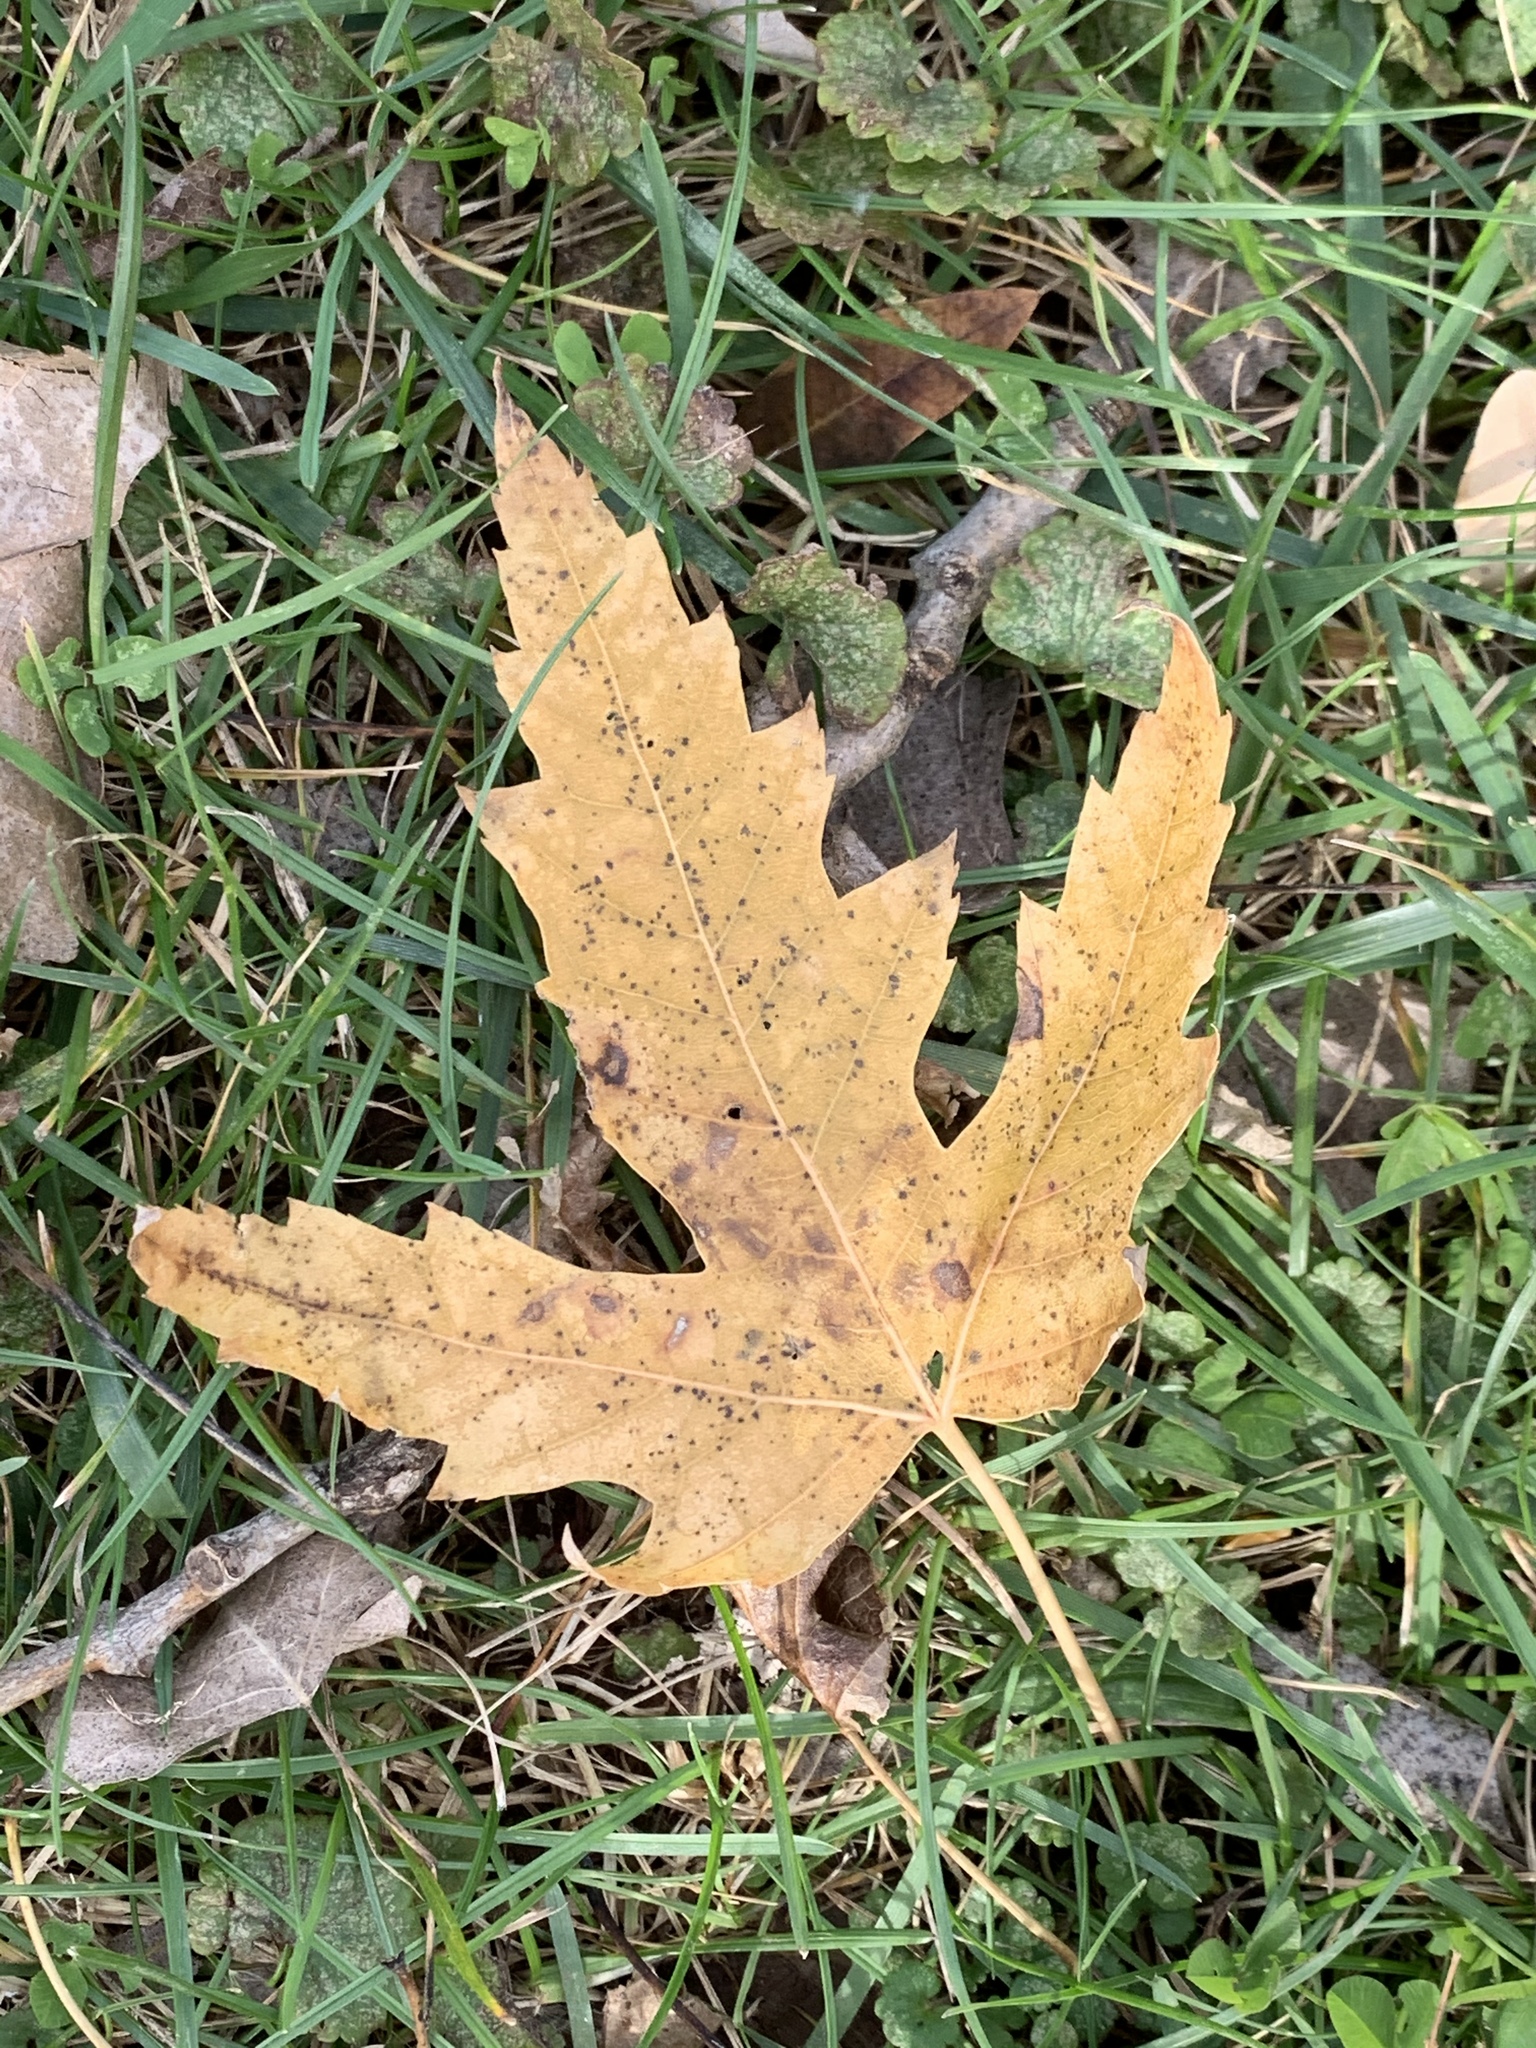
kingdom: Plantae
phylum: Tracheophyta
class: Magnoliopsida
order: Sapindales
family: Sapindaceae
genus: Acer
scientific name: Acer saccharinum
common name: Silver maple
